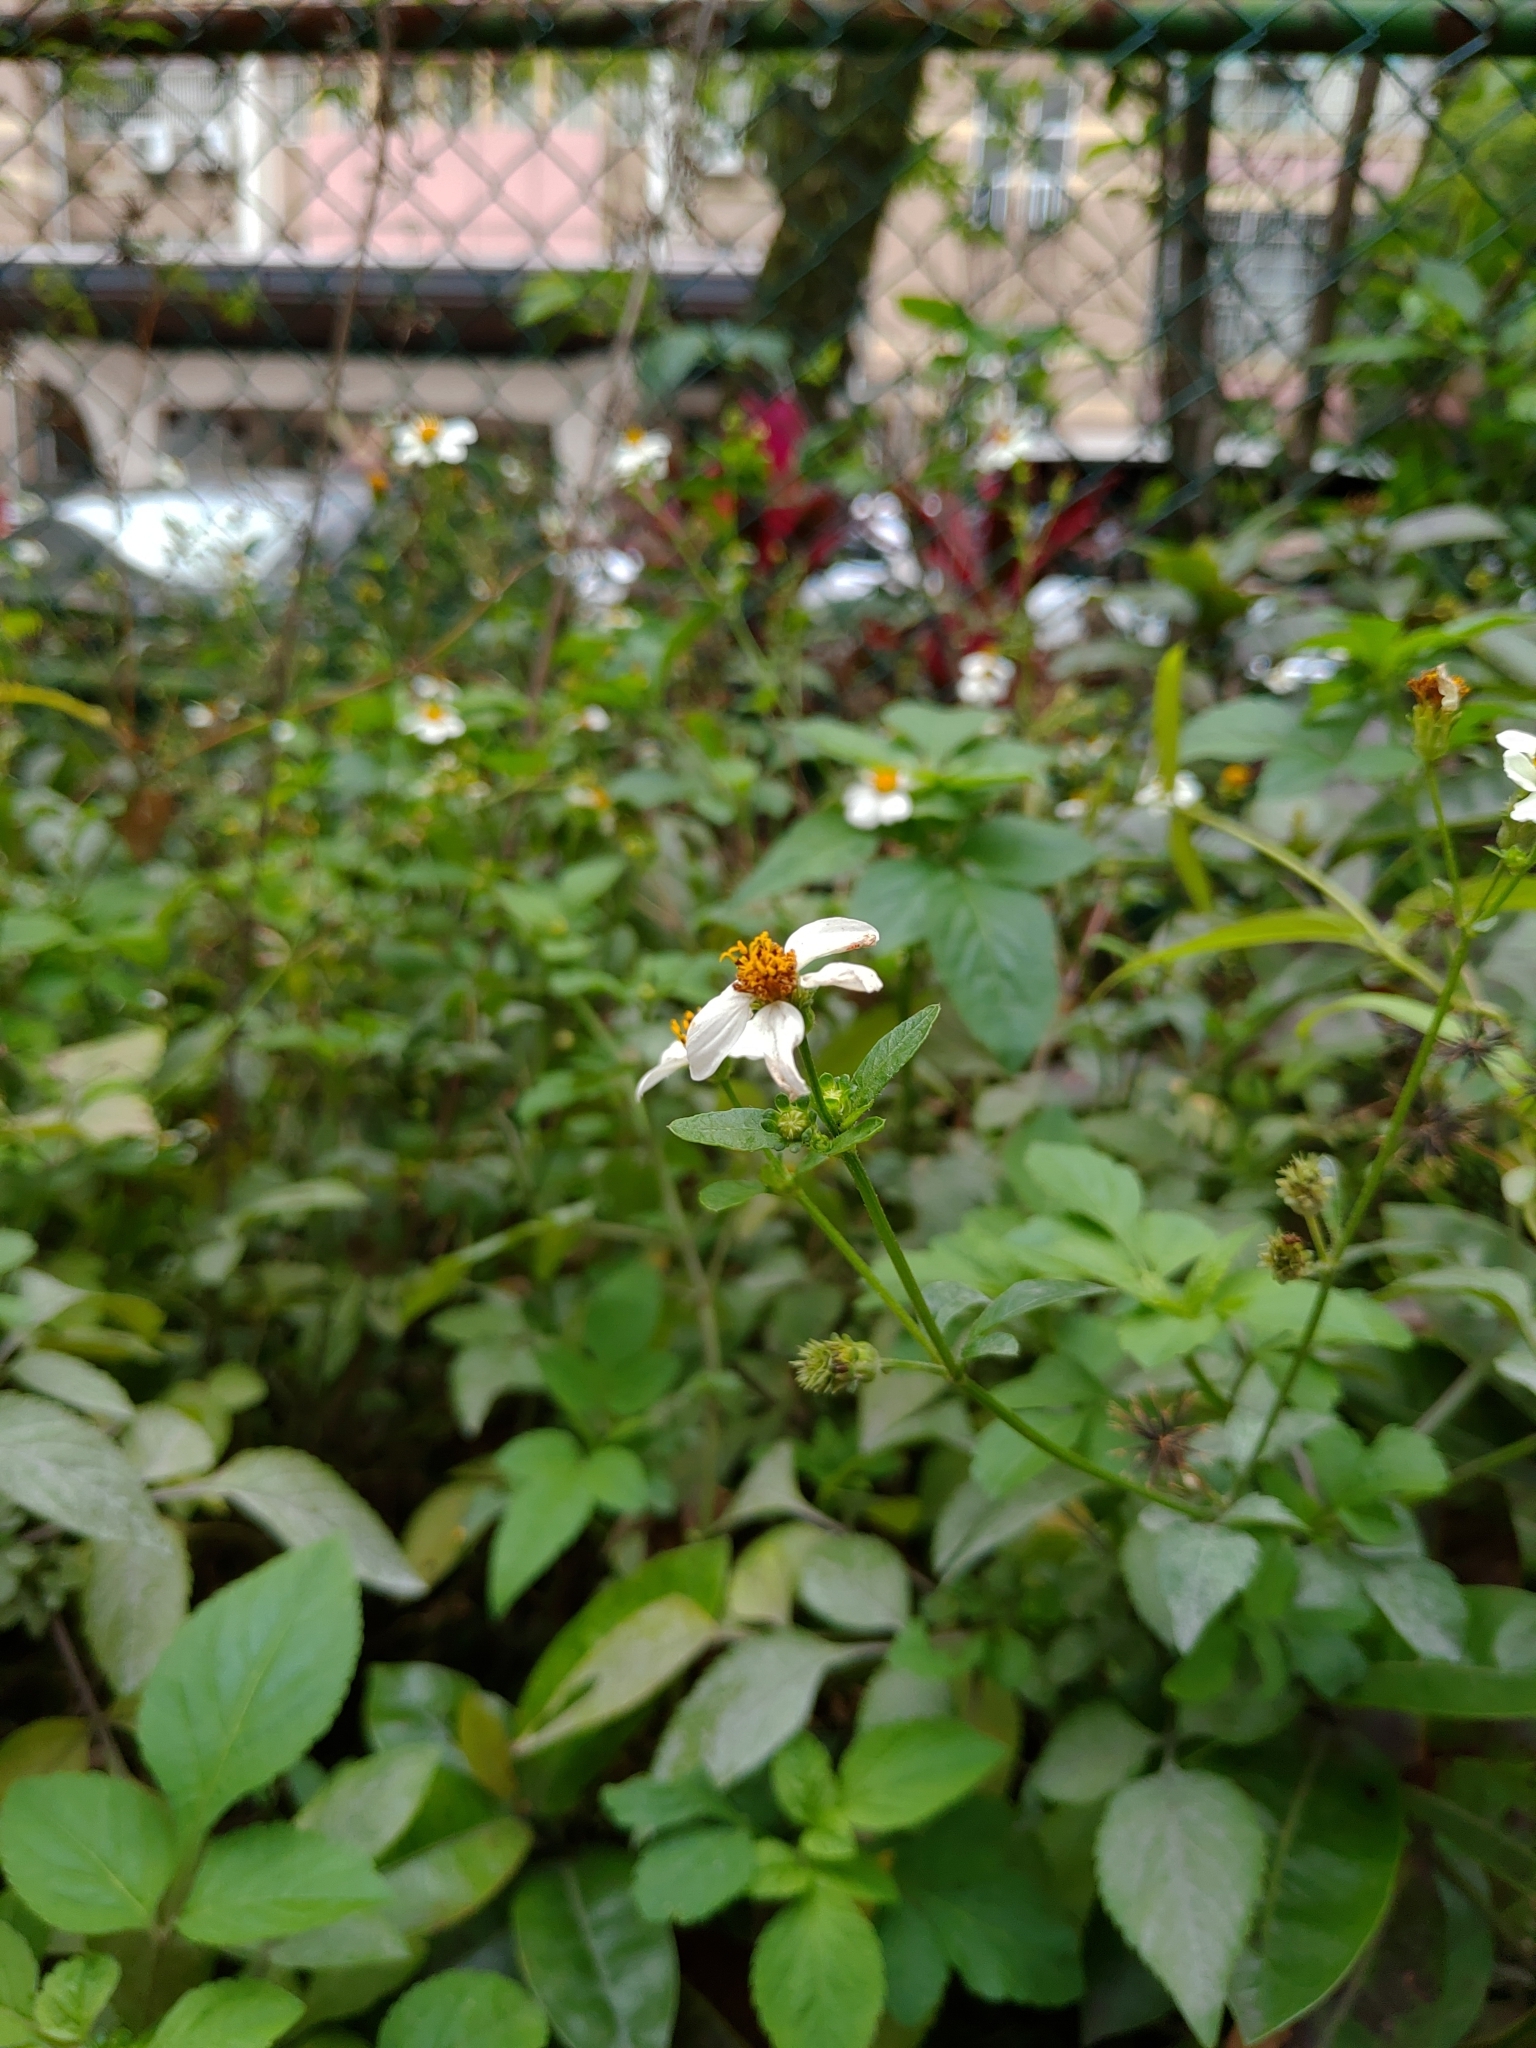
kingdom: Plantae
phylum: Tracheophyta
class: Magnoliopsida
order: Asterales
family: Asteraceae
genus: Bidens
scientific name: Bidens alba
